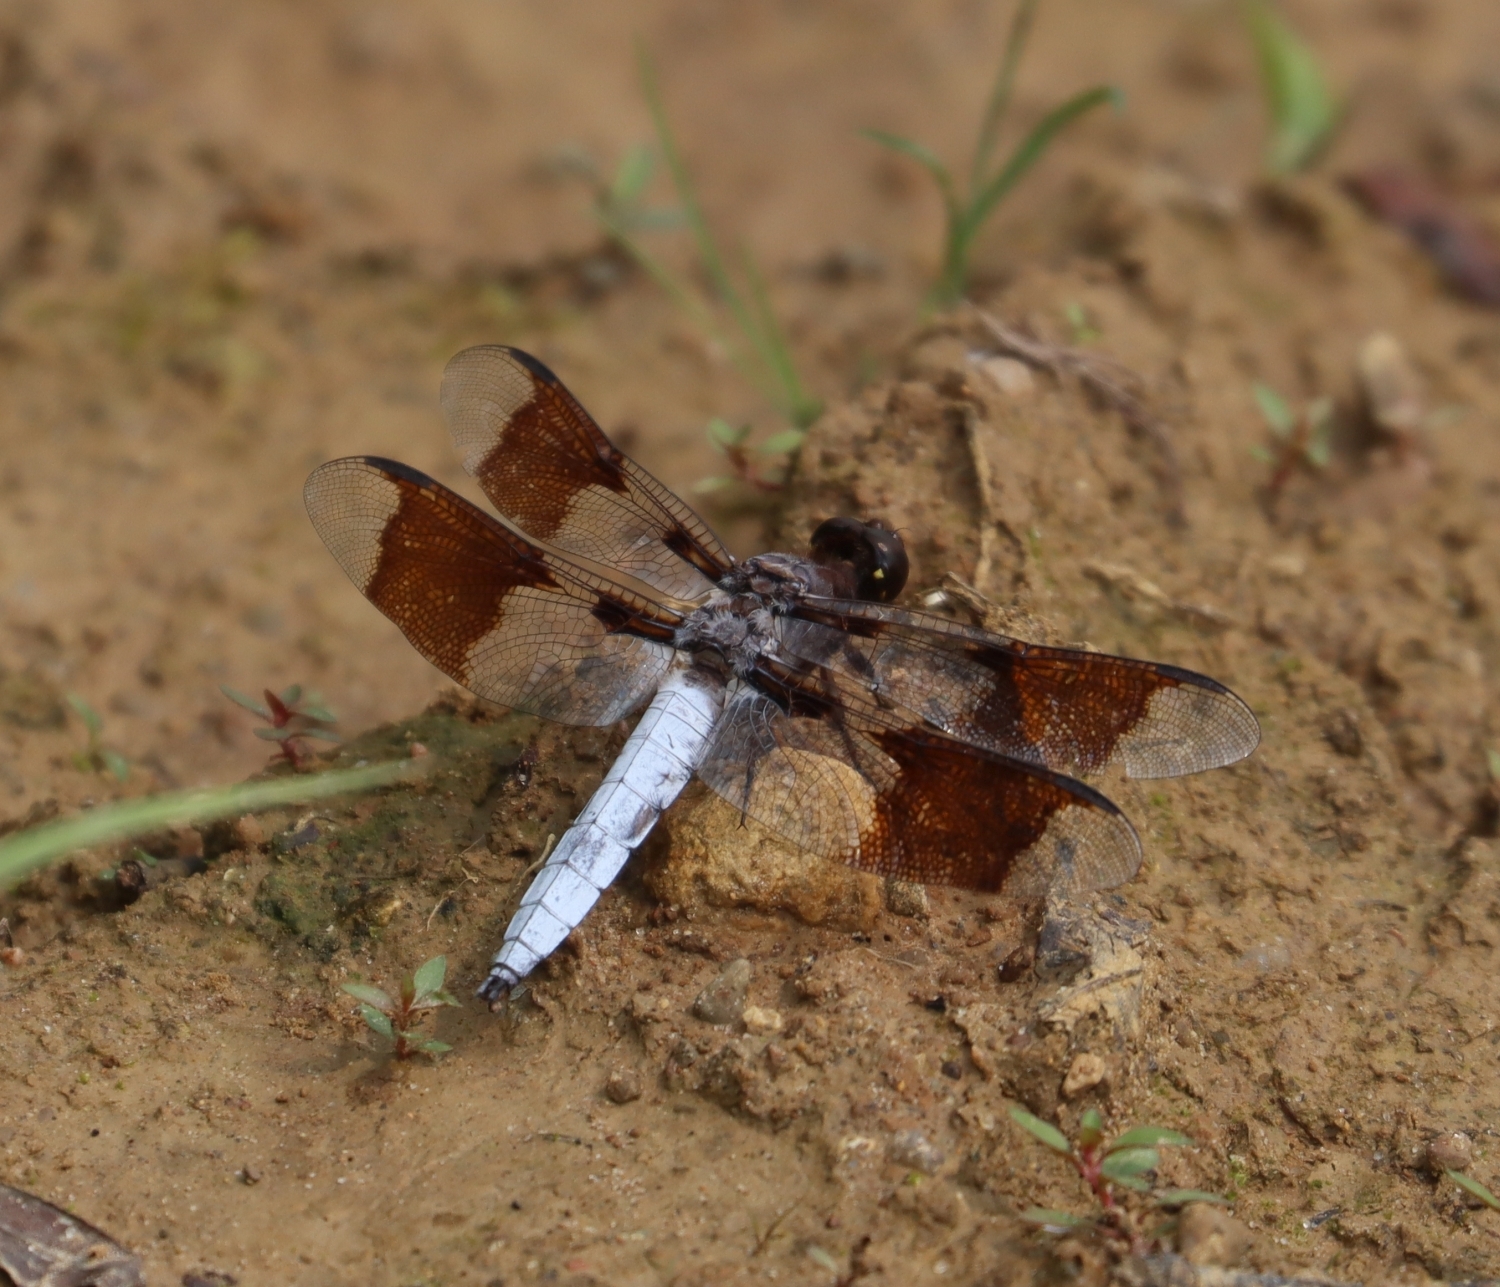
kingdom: Animalia
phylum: Arthropoda
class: Insecta
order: Odonata
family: Libellulidae
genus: Plathemis
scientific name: Plathemis lydia
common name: Common whitetail
